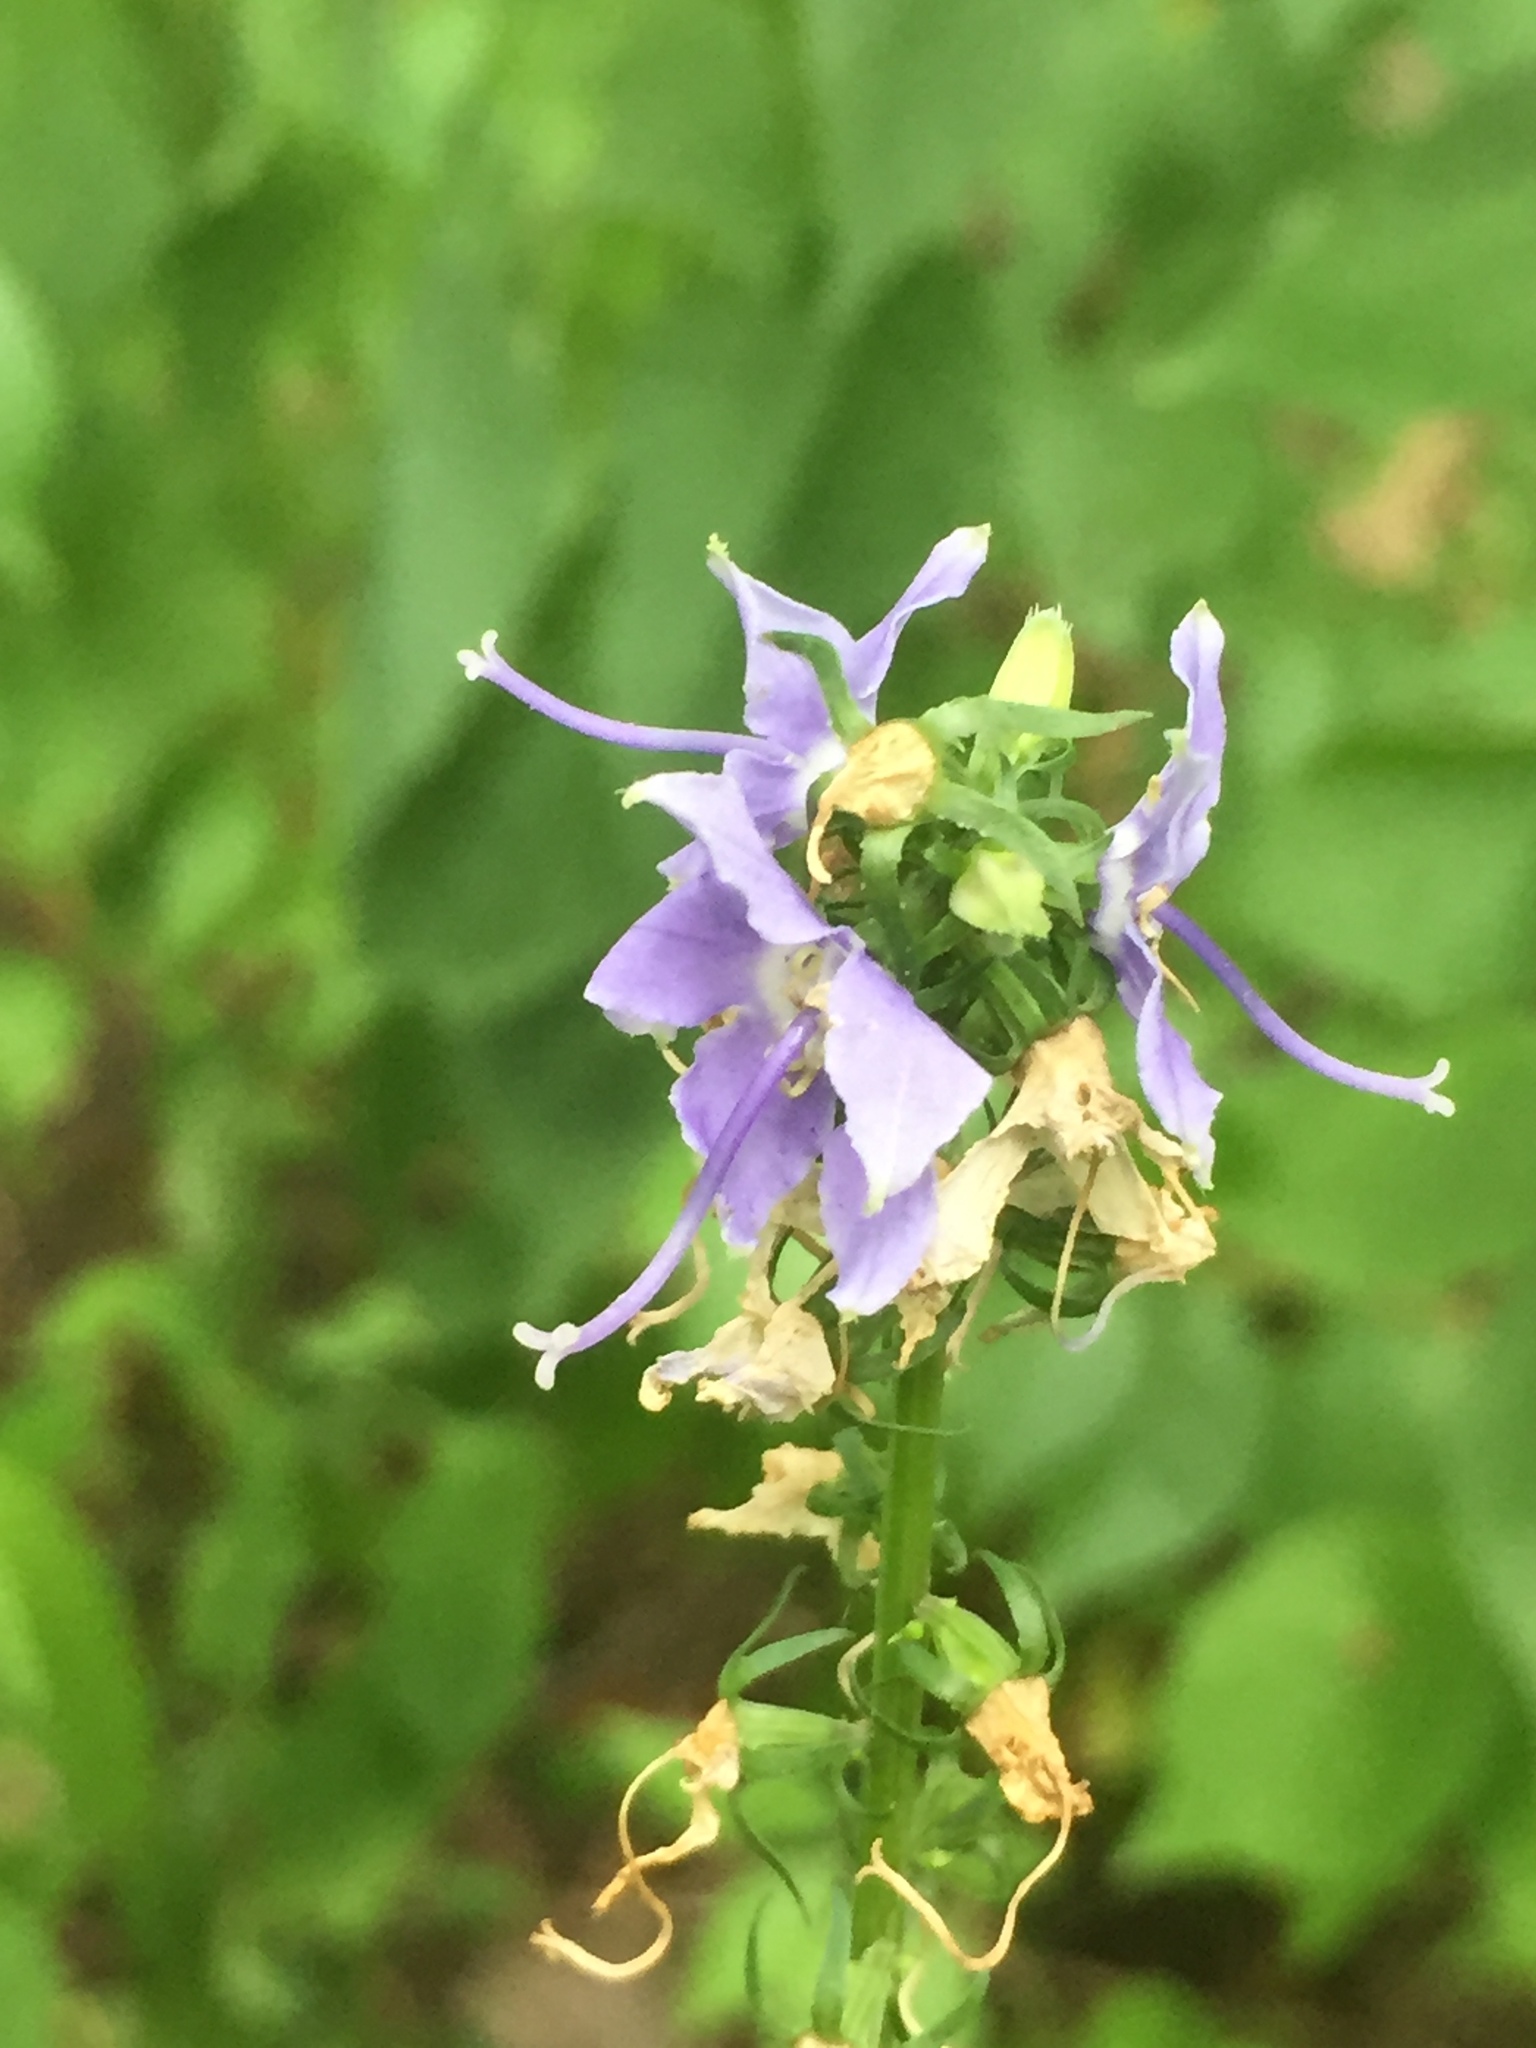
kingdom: Plantae
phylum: Tracheophyta
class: Magnoliopsida
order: Asterales
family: Campanulaceae
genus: Campanulastrum
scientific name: Campanulastrum americanum
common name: American bellflower
